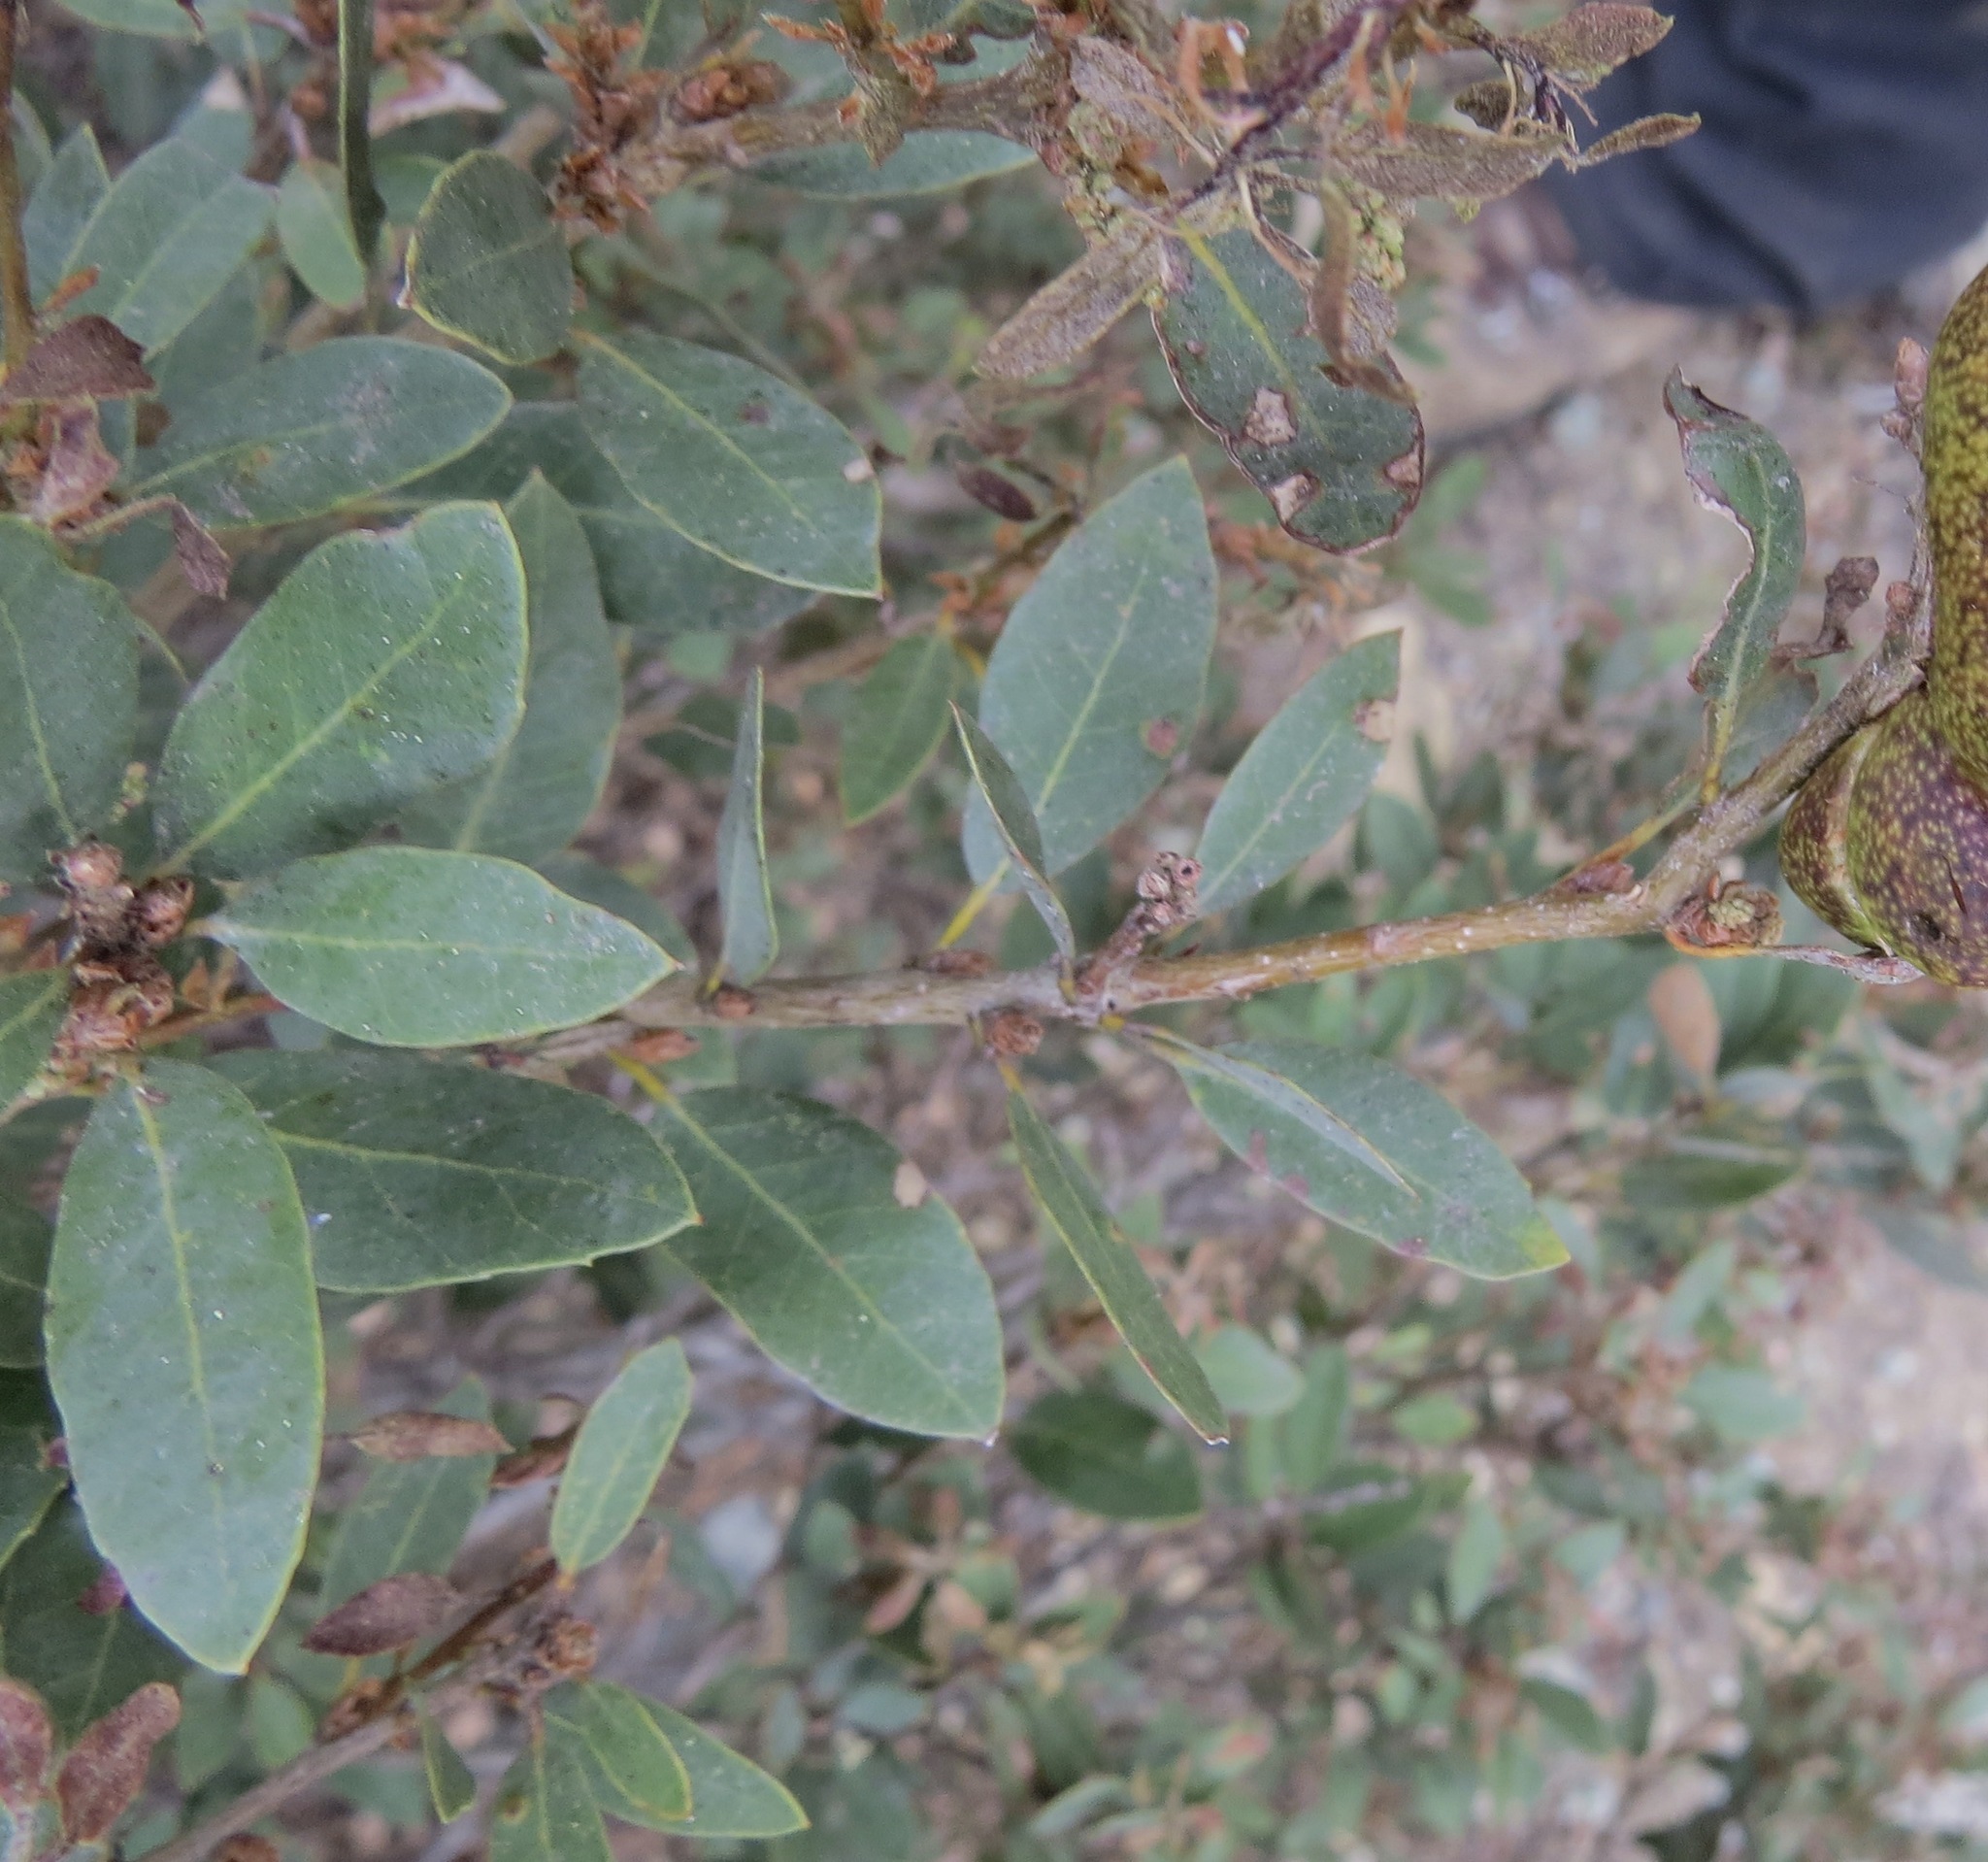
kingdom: Plantae
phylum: Tracheophyta
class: Magnoliopsida
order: Fagales
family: Fagaceae
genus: Quercus
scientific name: Quercus vacciniifolia
